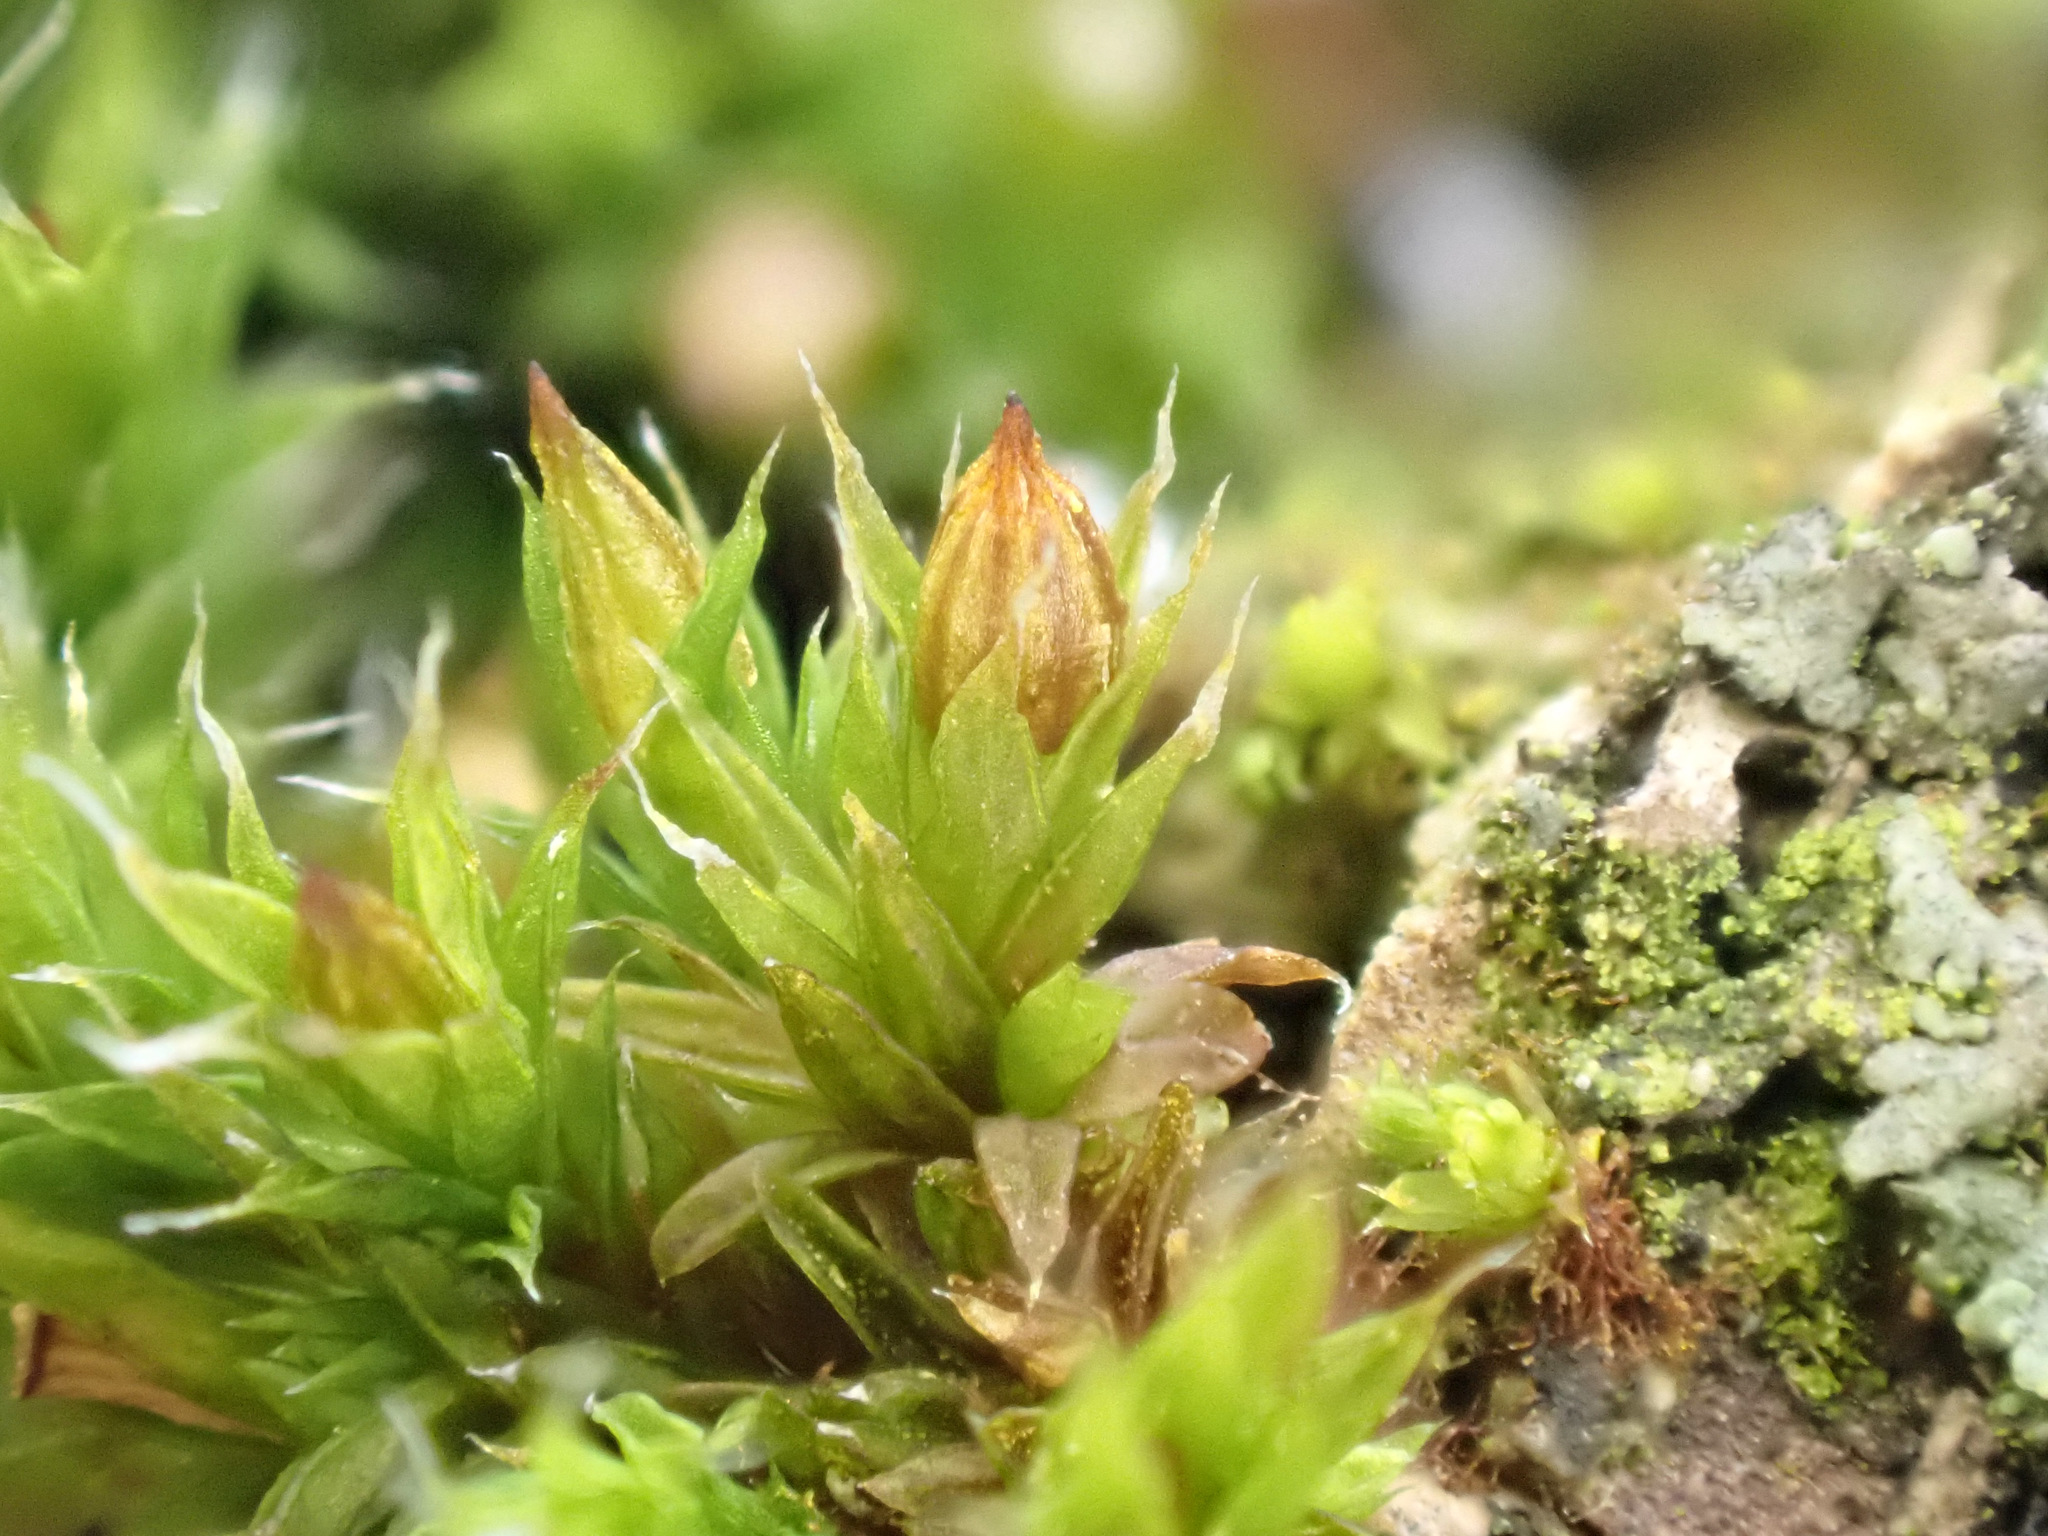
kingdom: Plantae
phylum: Bryophyta
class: Bryopsida
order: Orthotrichales
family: Orthotrichaceae
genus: Orthotrichum
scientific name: Orthotrichum diaphanum
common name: White-tipped bristle-moss
